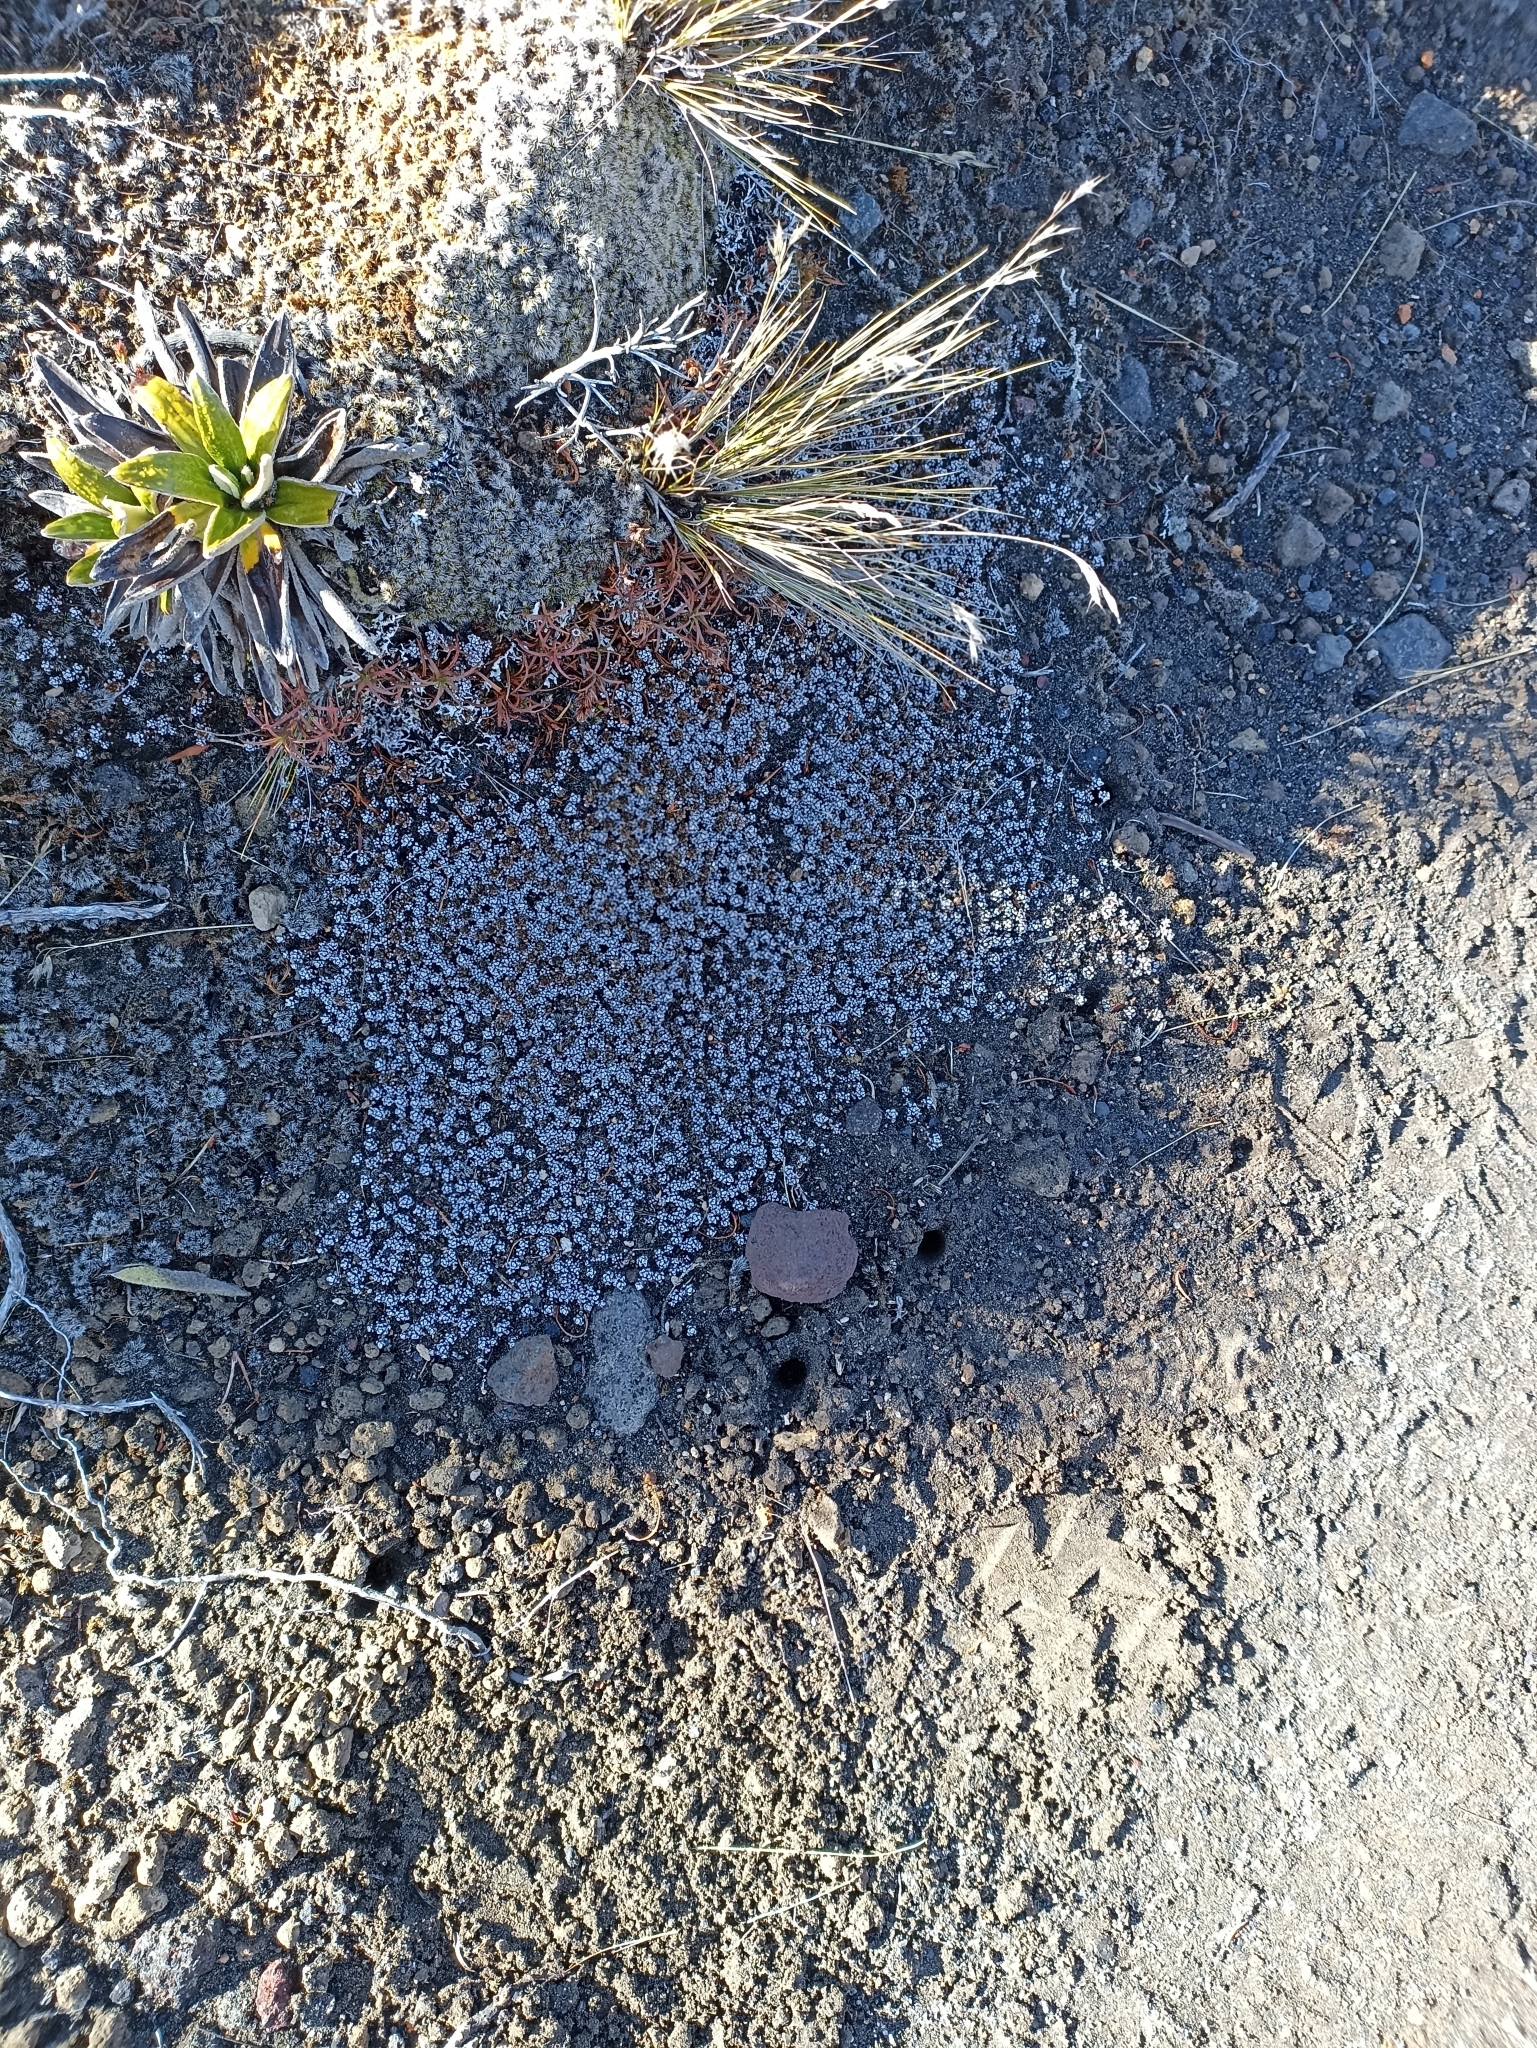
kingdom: Plantae
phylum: Tracheophyta
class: Magnoliopsida
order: Asterales
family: Asteraceae
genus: Raoulia
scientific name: Raoulia albosericea
